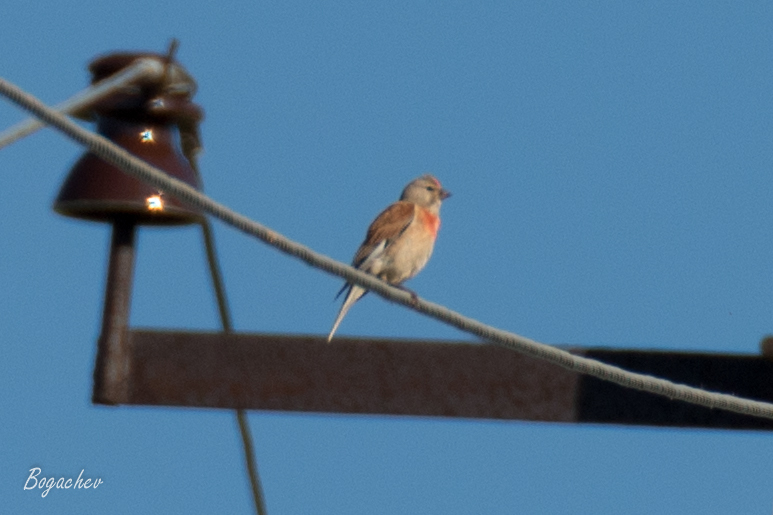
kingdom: Animalia
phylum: Chordata
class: Aves
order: Passeriformes
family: Fringillidae
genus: Linaria
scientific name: Linaria cannabina
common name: Common linnet
